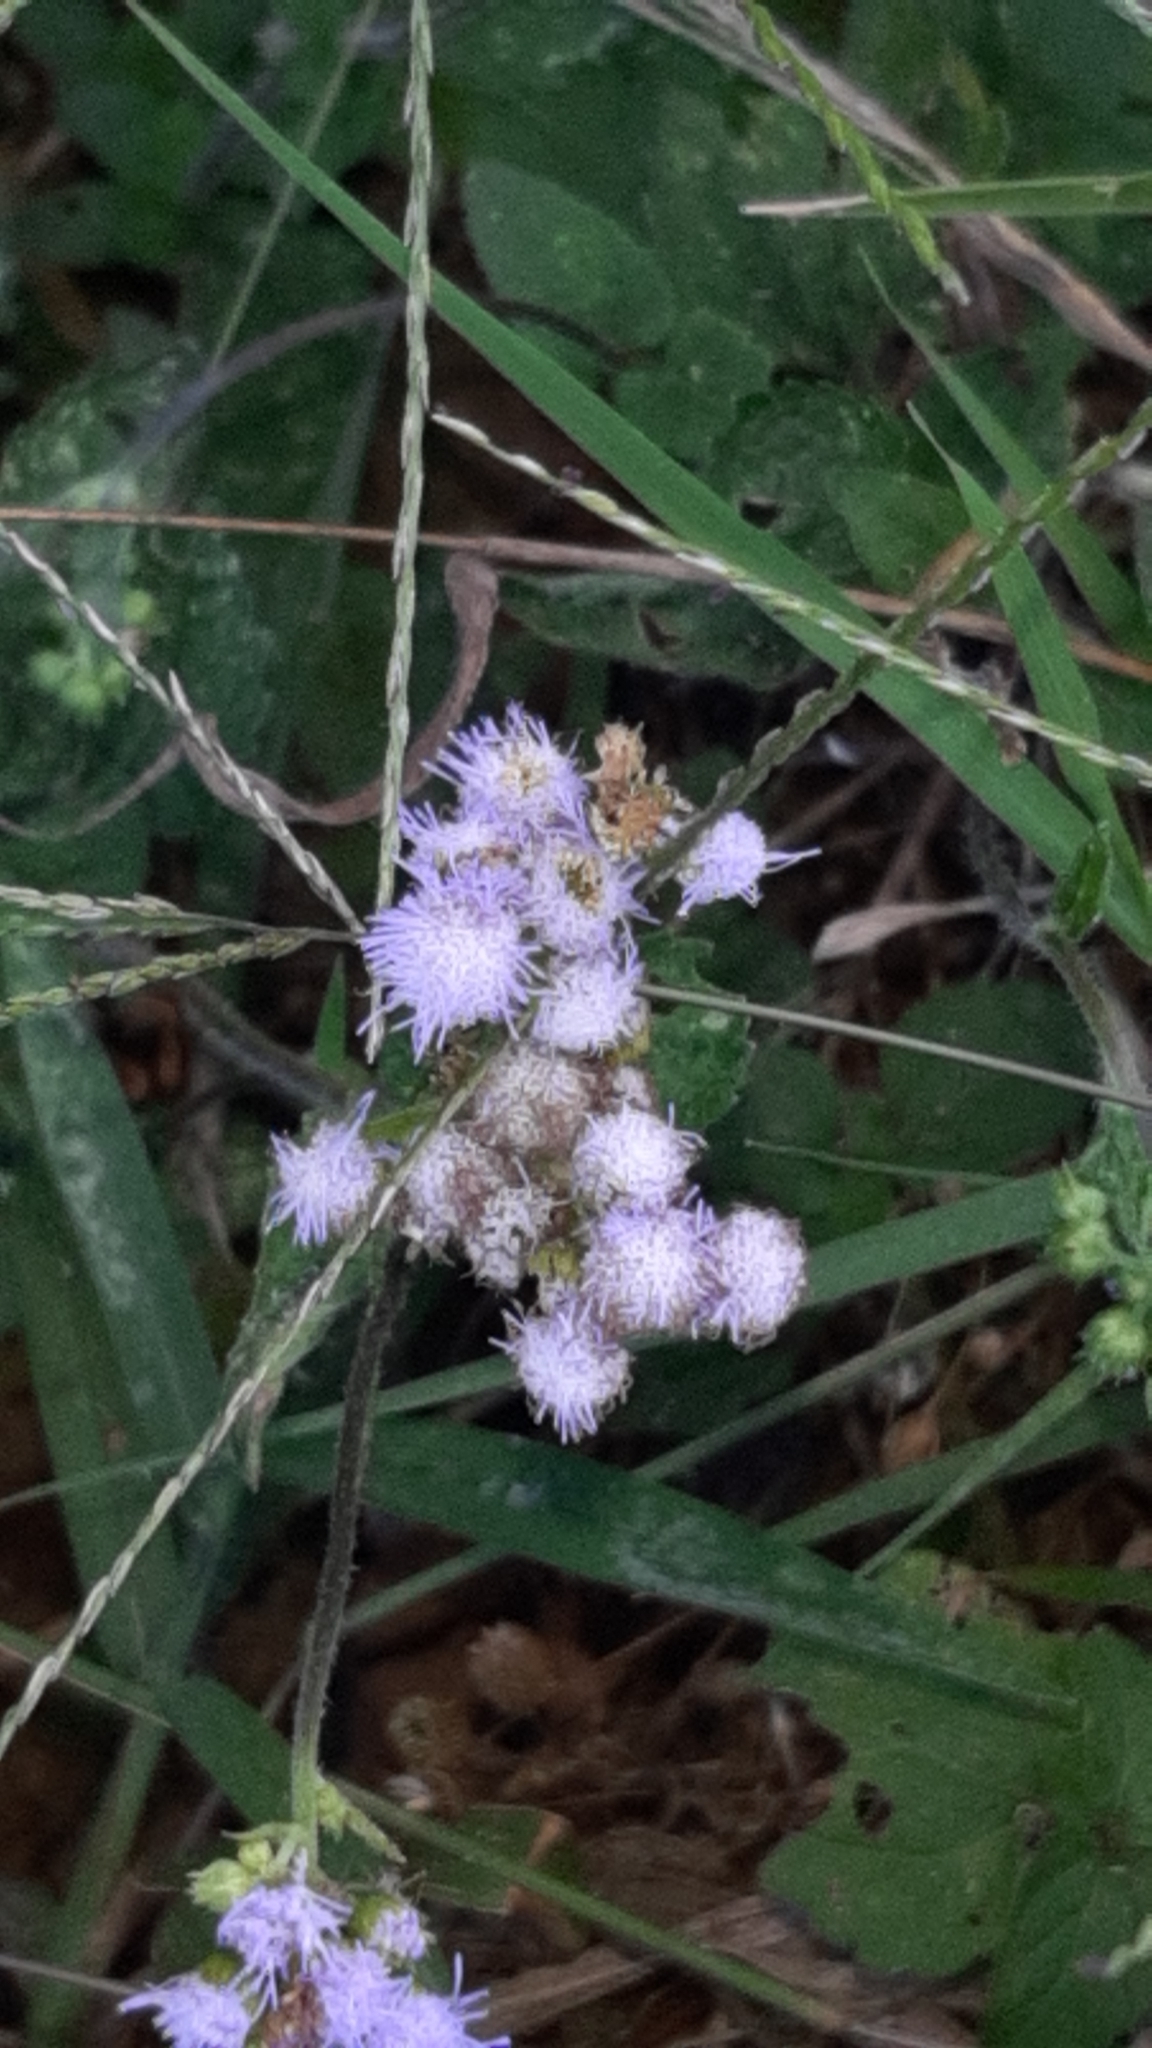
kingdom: Plantae
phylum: Tracheophyta
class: Magnoliopsida
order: Asterales
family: Asteraceae
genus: Ageratum
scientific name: Ageratum houstonianum
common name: Bluemink
